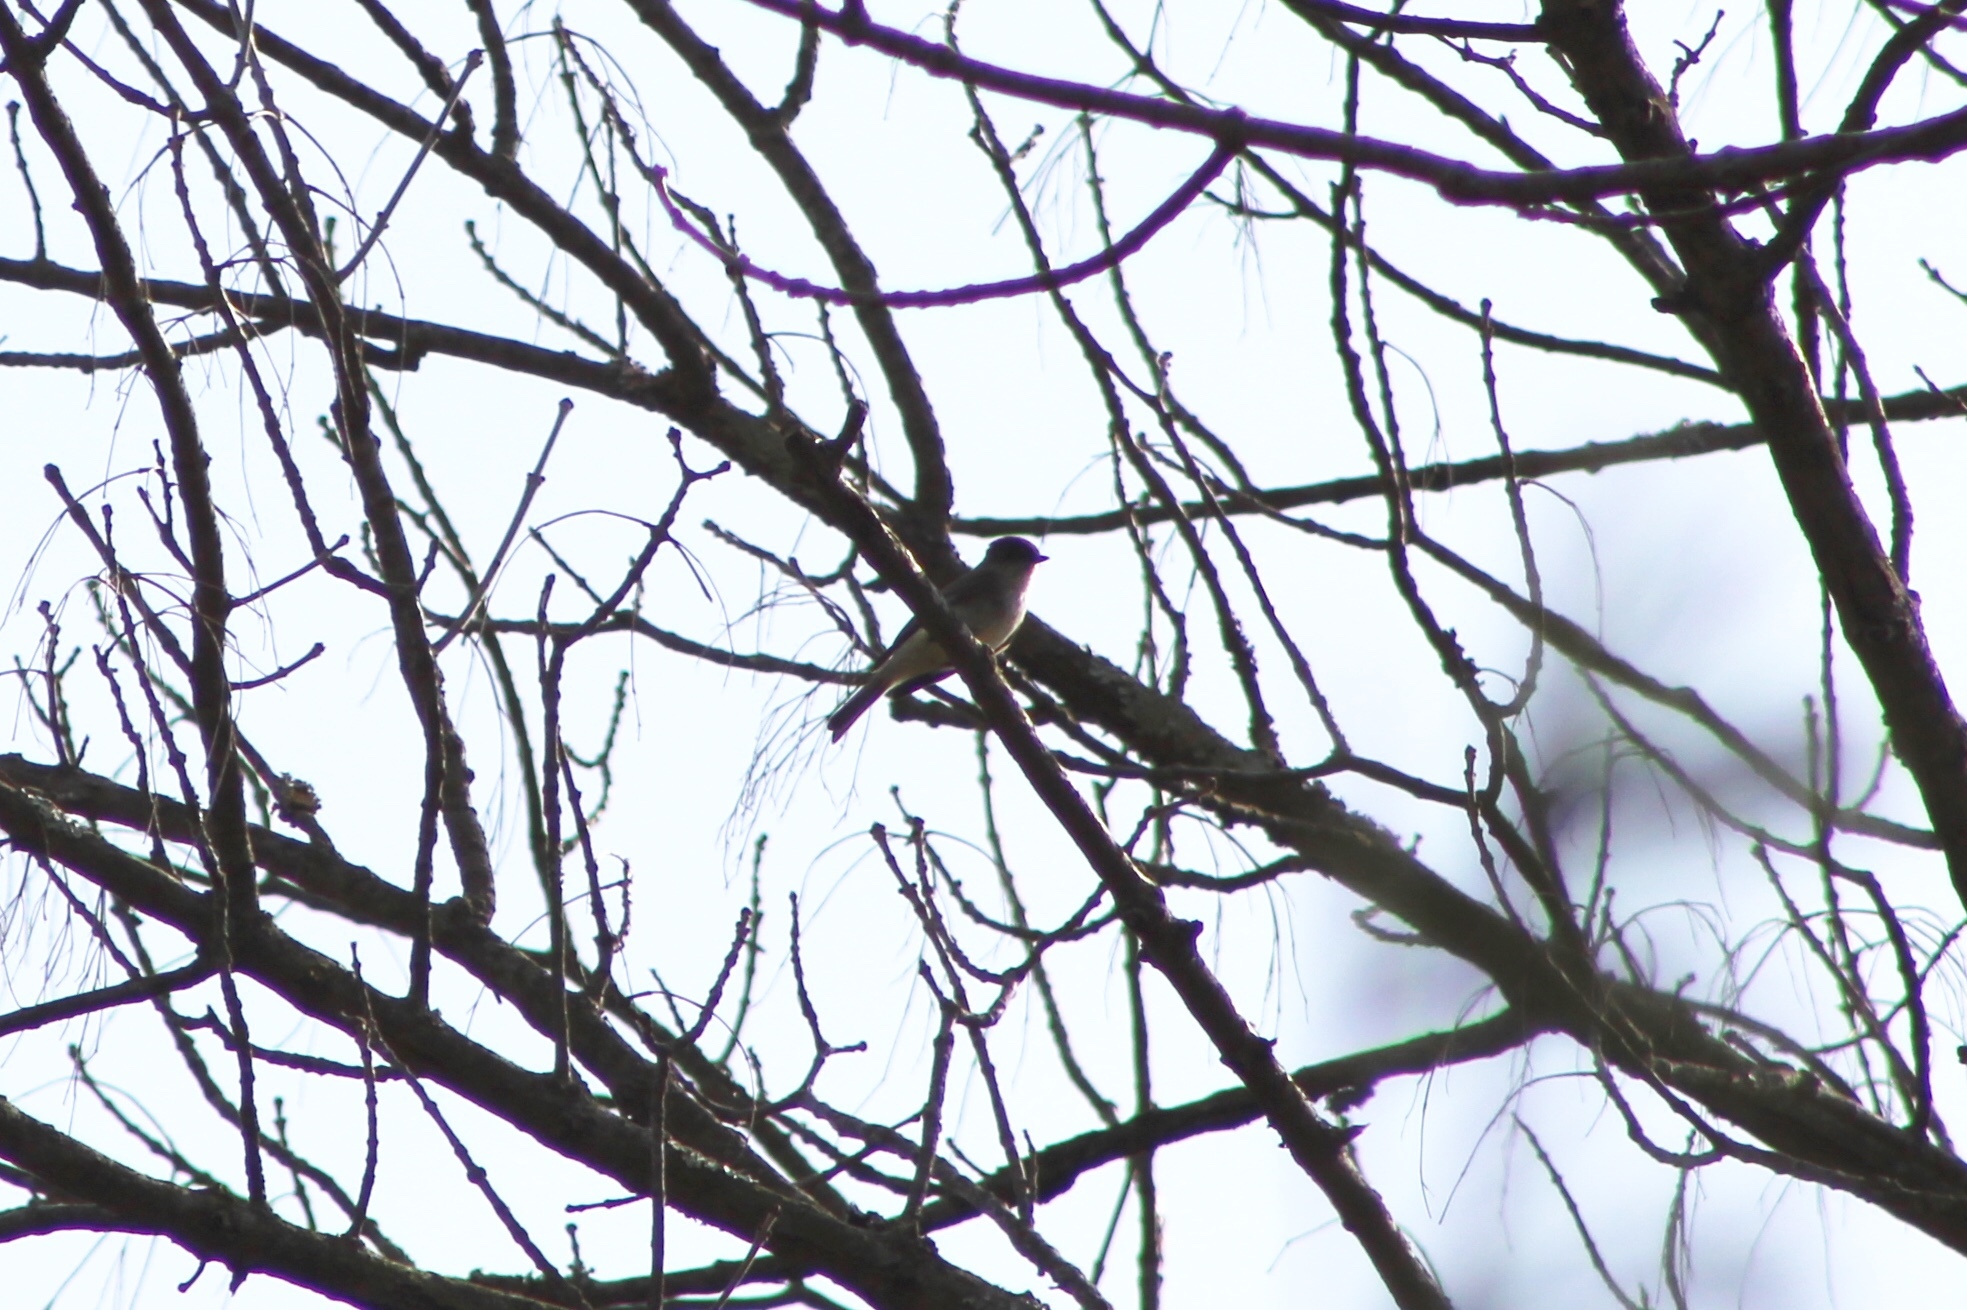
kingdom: Animalia
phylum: Chordata
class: Aves
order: Passeriformes
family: Tyrannidae
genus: Sayornis
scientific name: Sayornis phoebe
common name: Eastern phoebe
